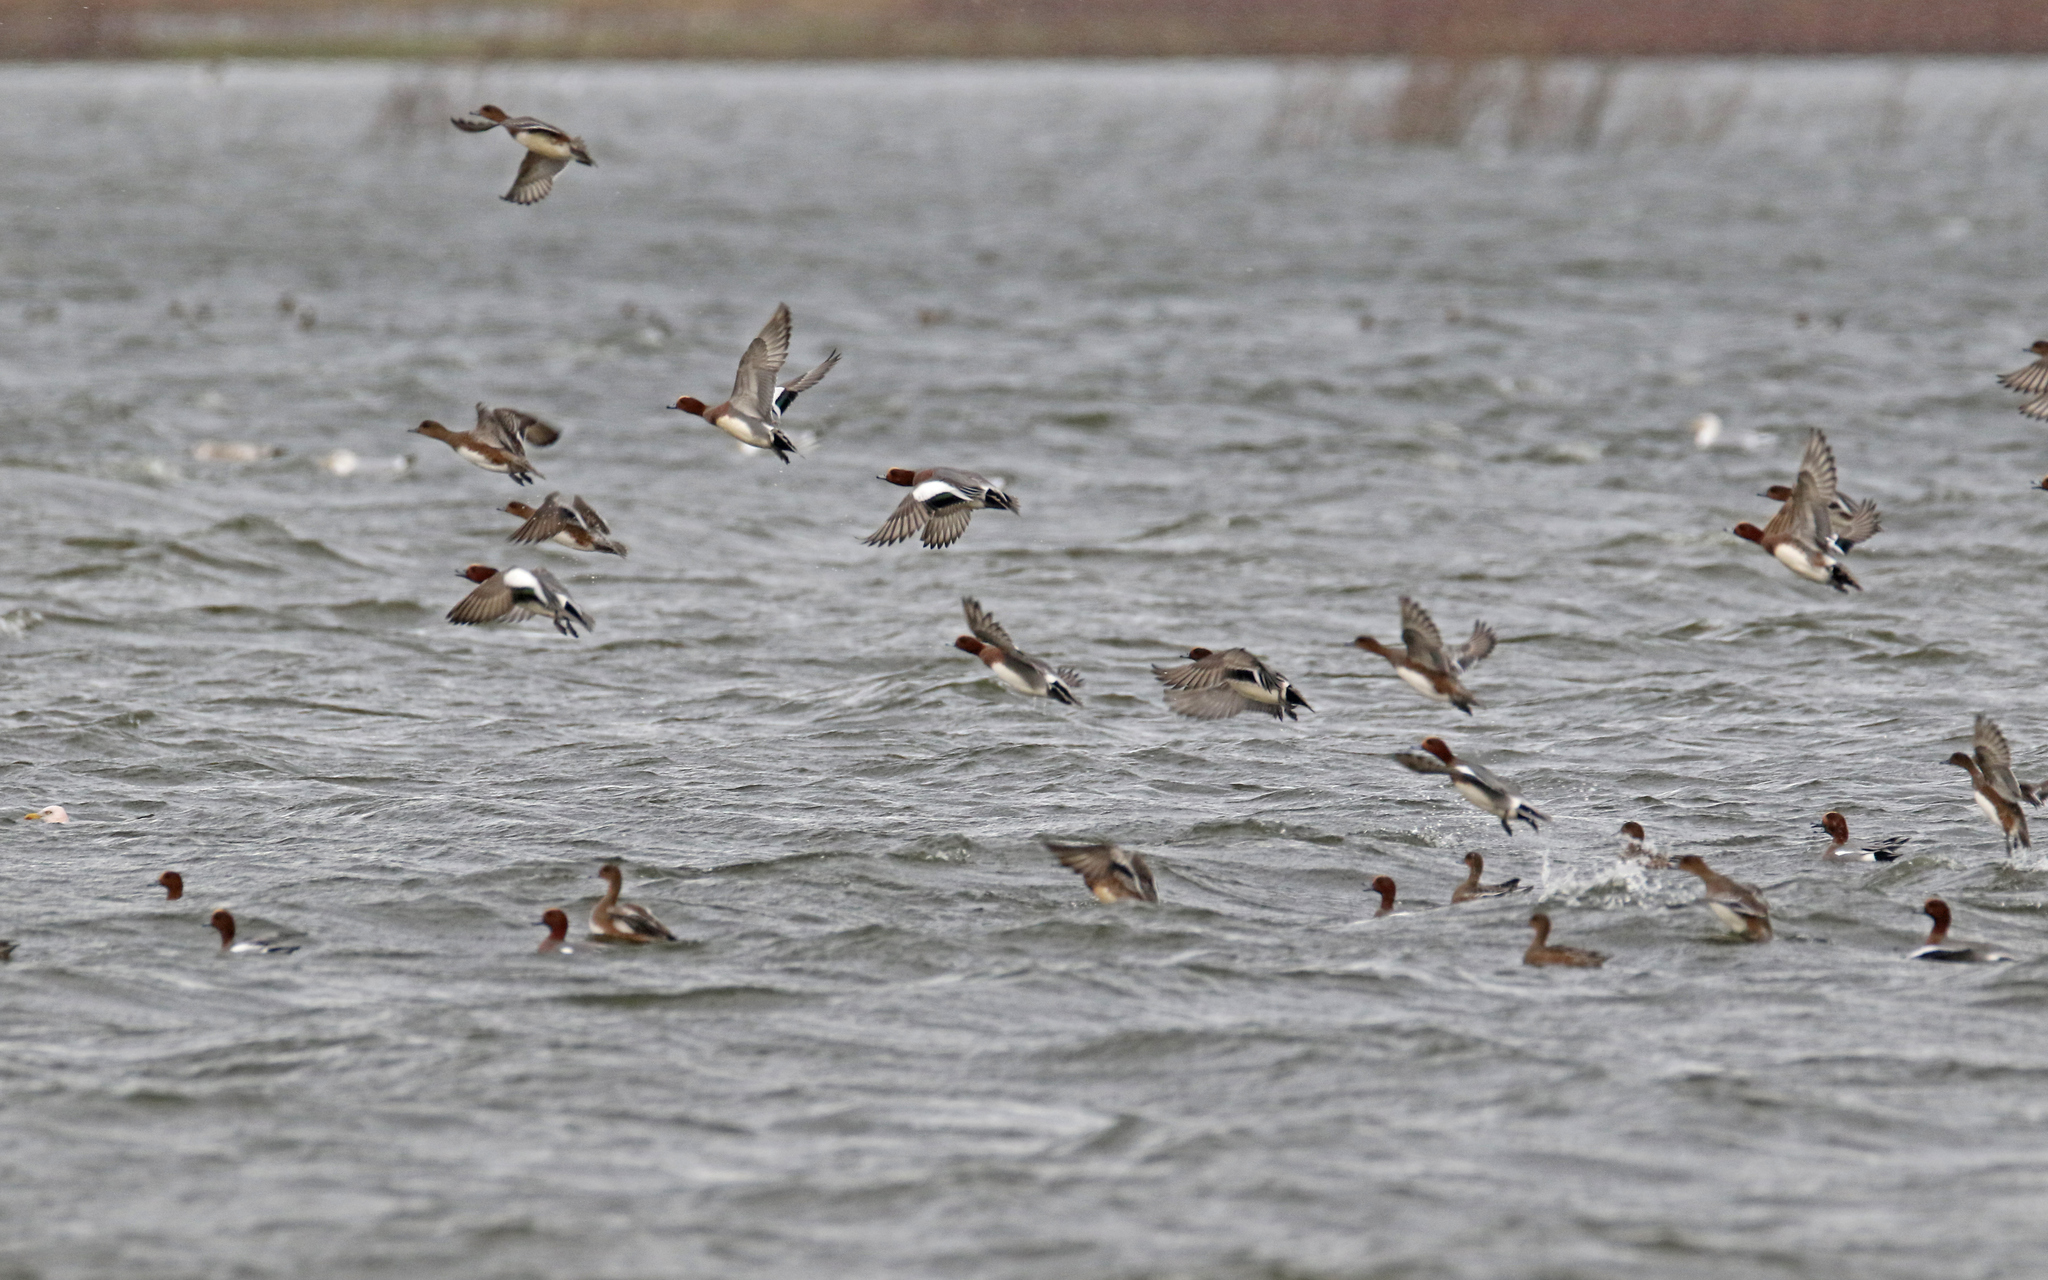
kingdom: Animalia
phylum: Chordata
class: Aves
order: Anseriformes
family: Anatidae
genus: Mareca
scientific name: Mareca penelope
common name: Eurasian wigeon
